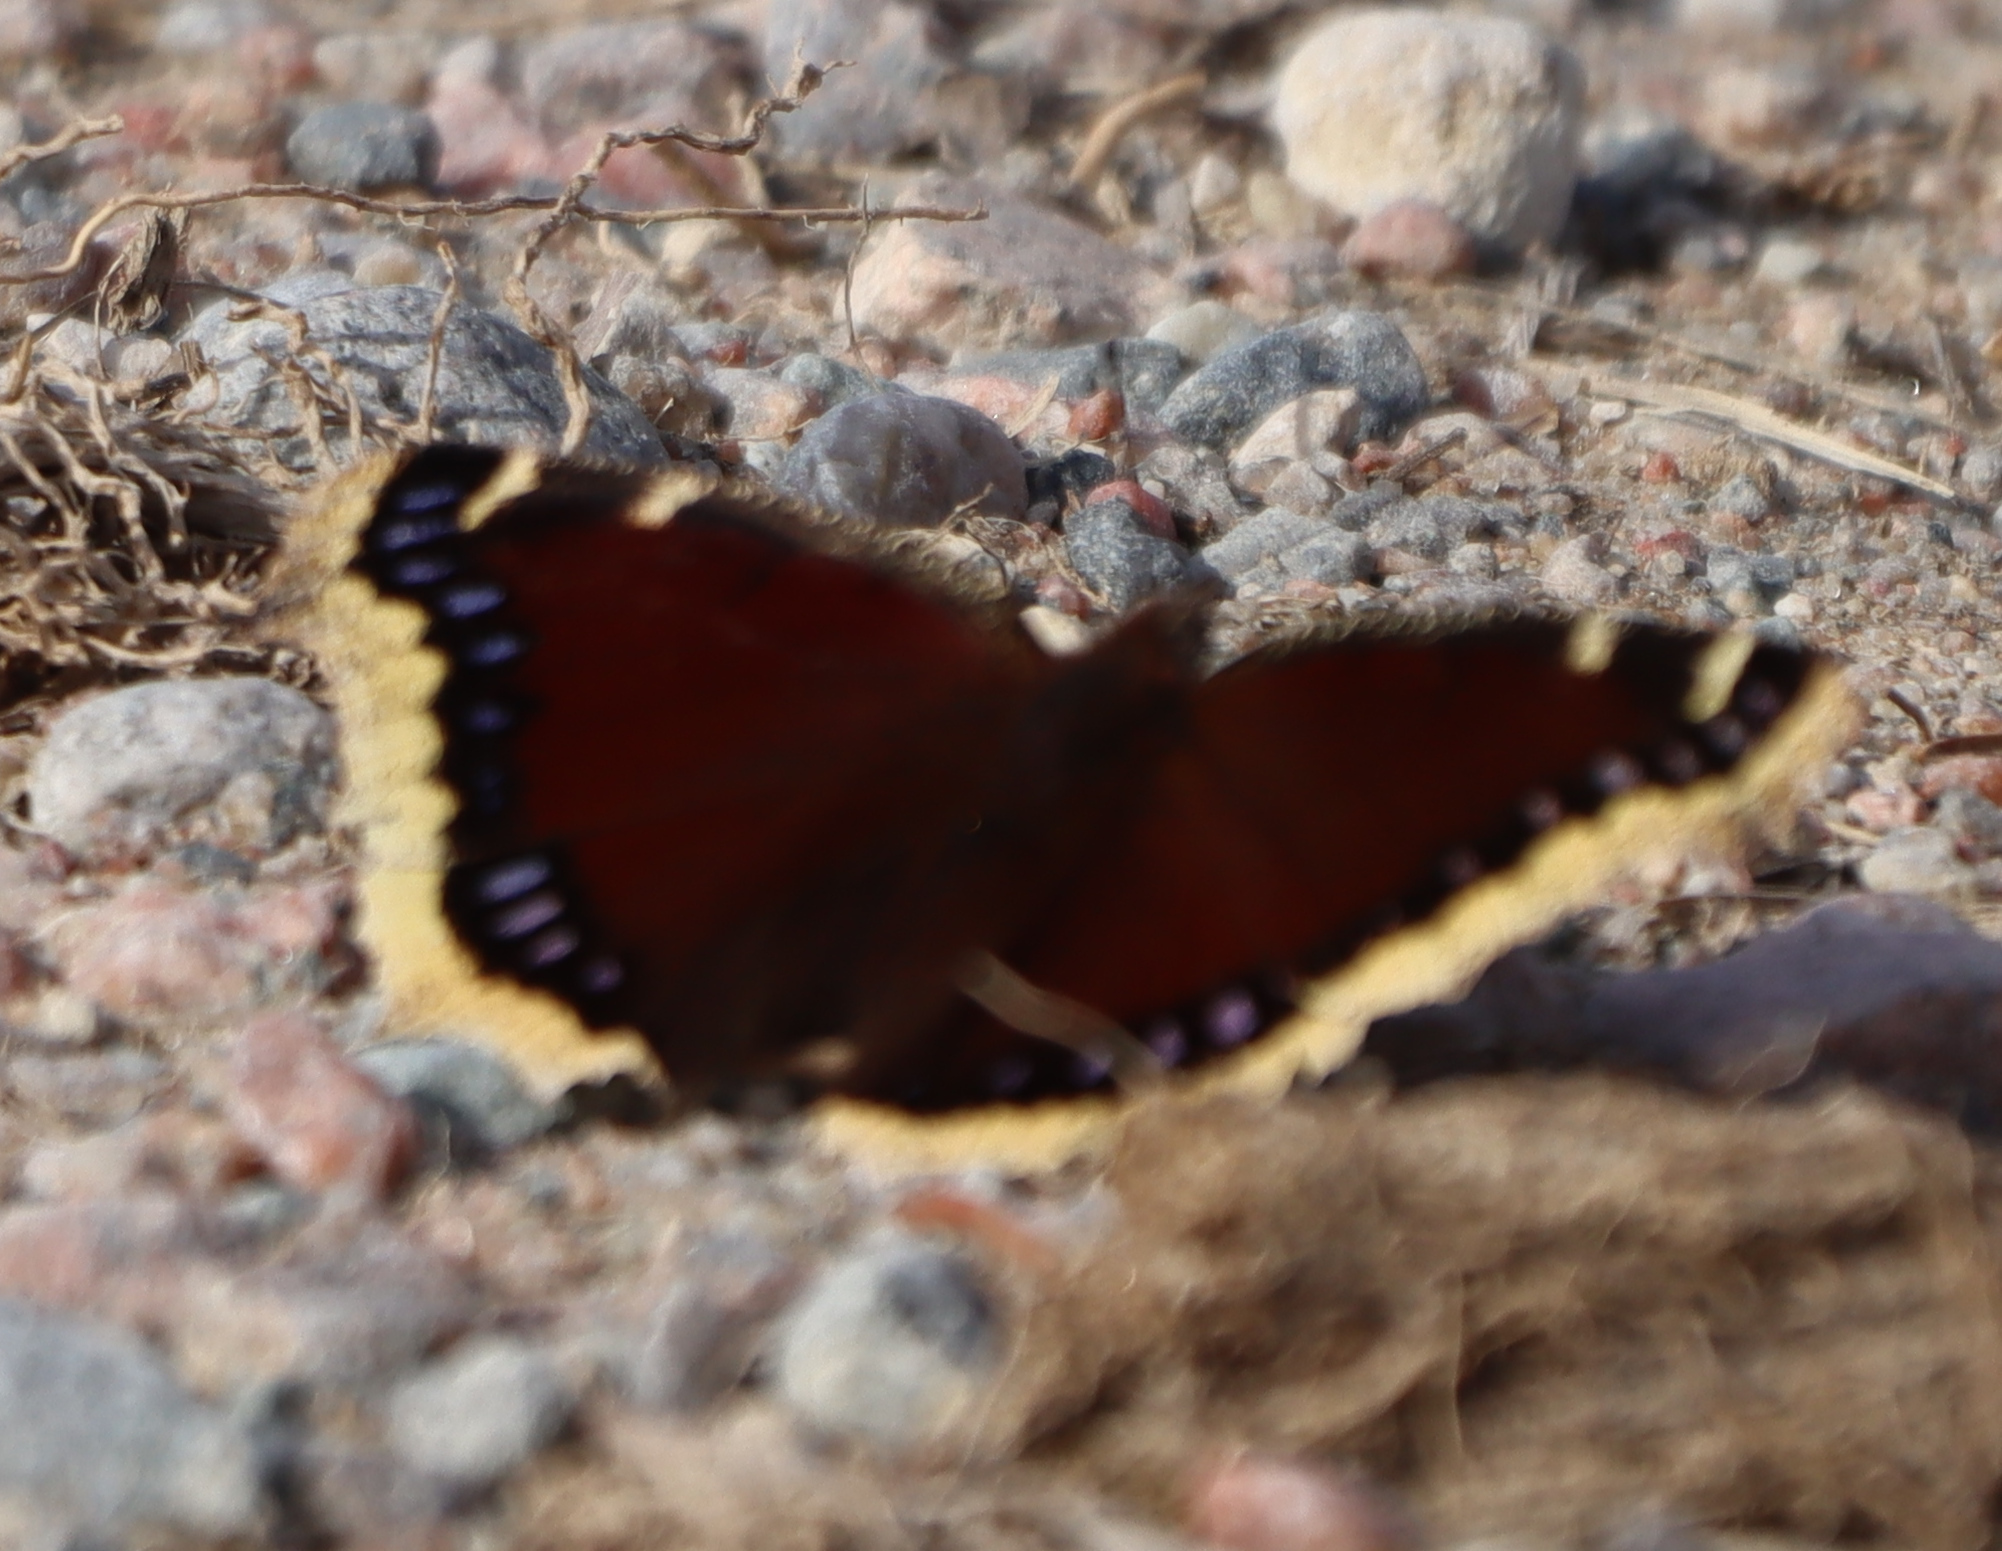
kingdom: Animalia
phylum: Arthropoda
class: Insecta
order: Lepidoptera
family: Nymphalidae
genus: Nymphalis
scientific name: Nymphalis antiopa
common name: Camberwell beauty
